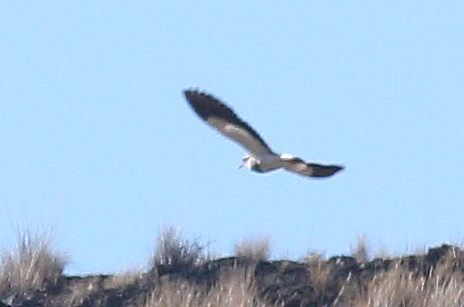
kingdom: Animalia
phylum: Chordata
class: Aves
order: Charadriiformes
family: Charadriidae
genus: Vanellus
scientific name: Vanellus resplendens
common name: Andean lapwing
